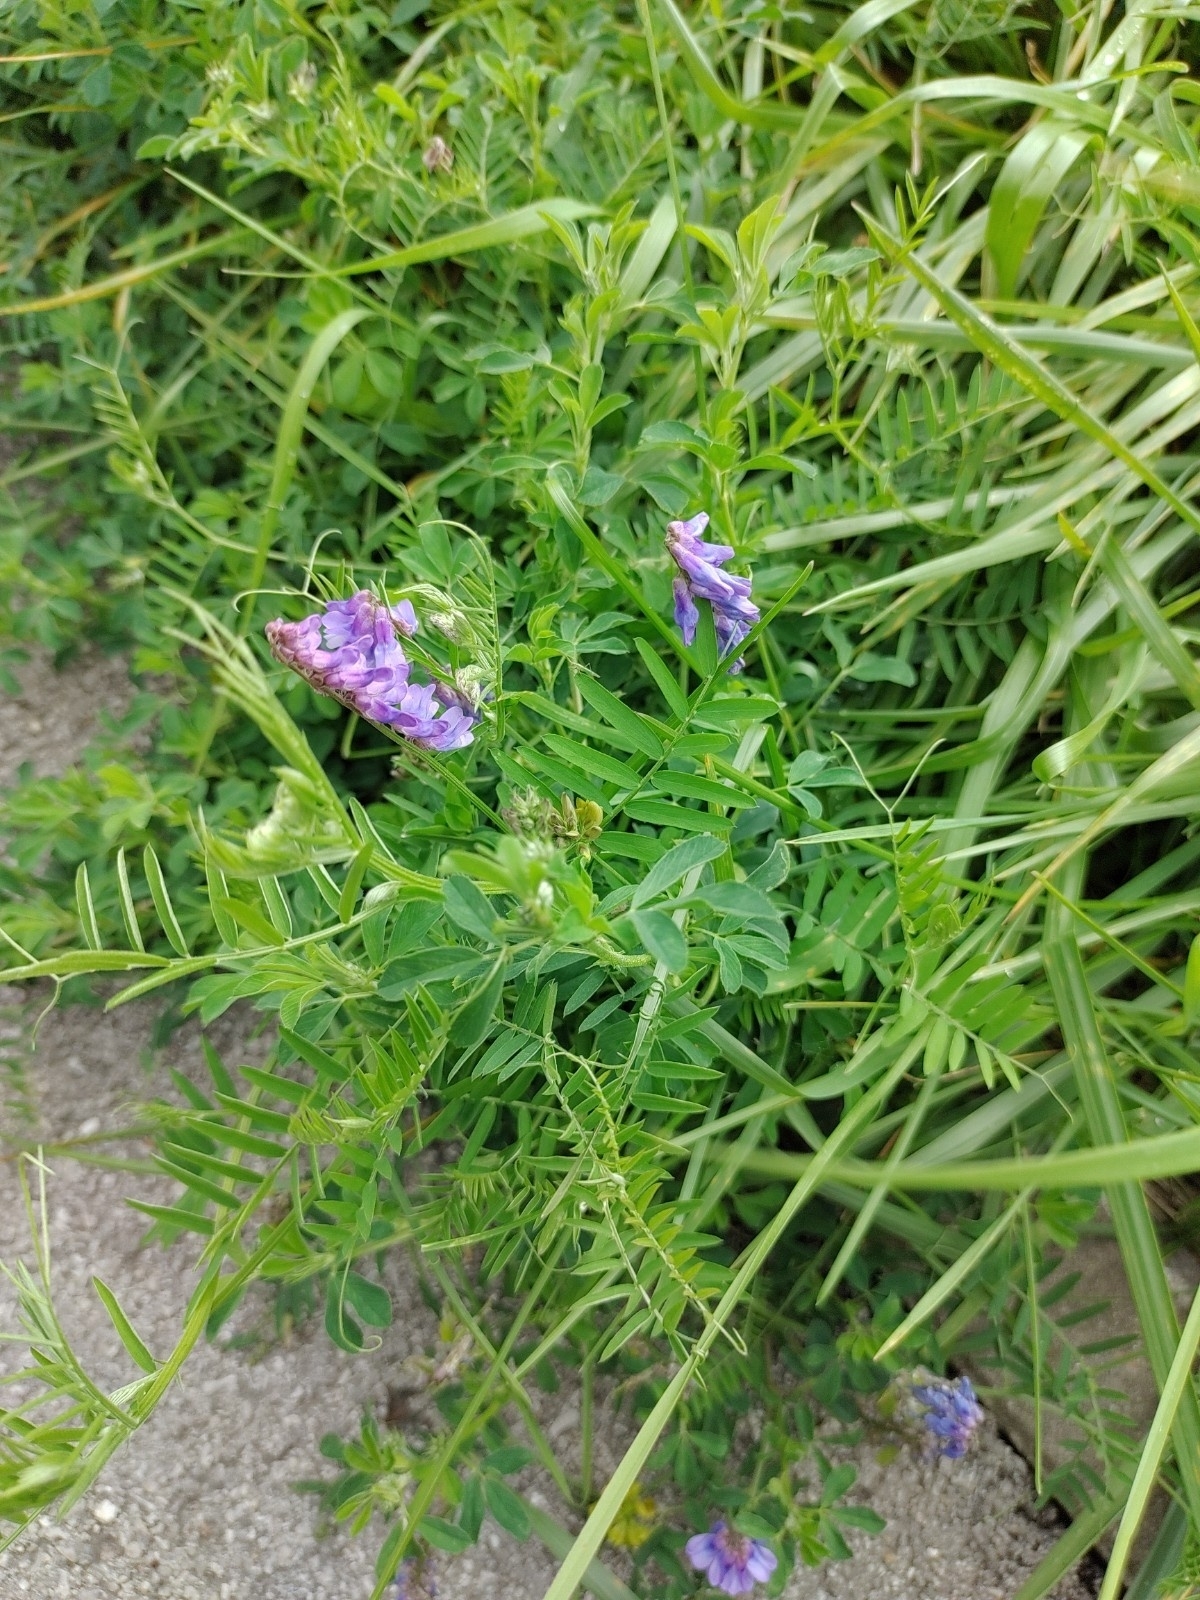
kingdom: Plantae
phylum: Tracheophyta
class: Magnoliopsida
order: Fabales
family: Fabaceae
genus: Vicia
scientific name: Vicia cracca
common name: Bird vetch
